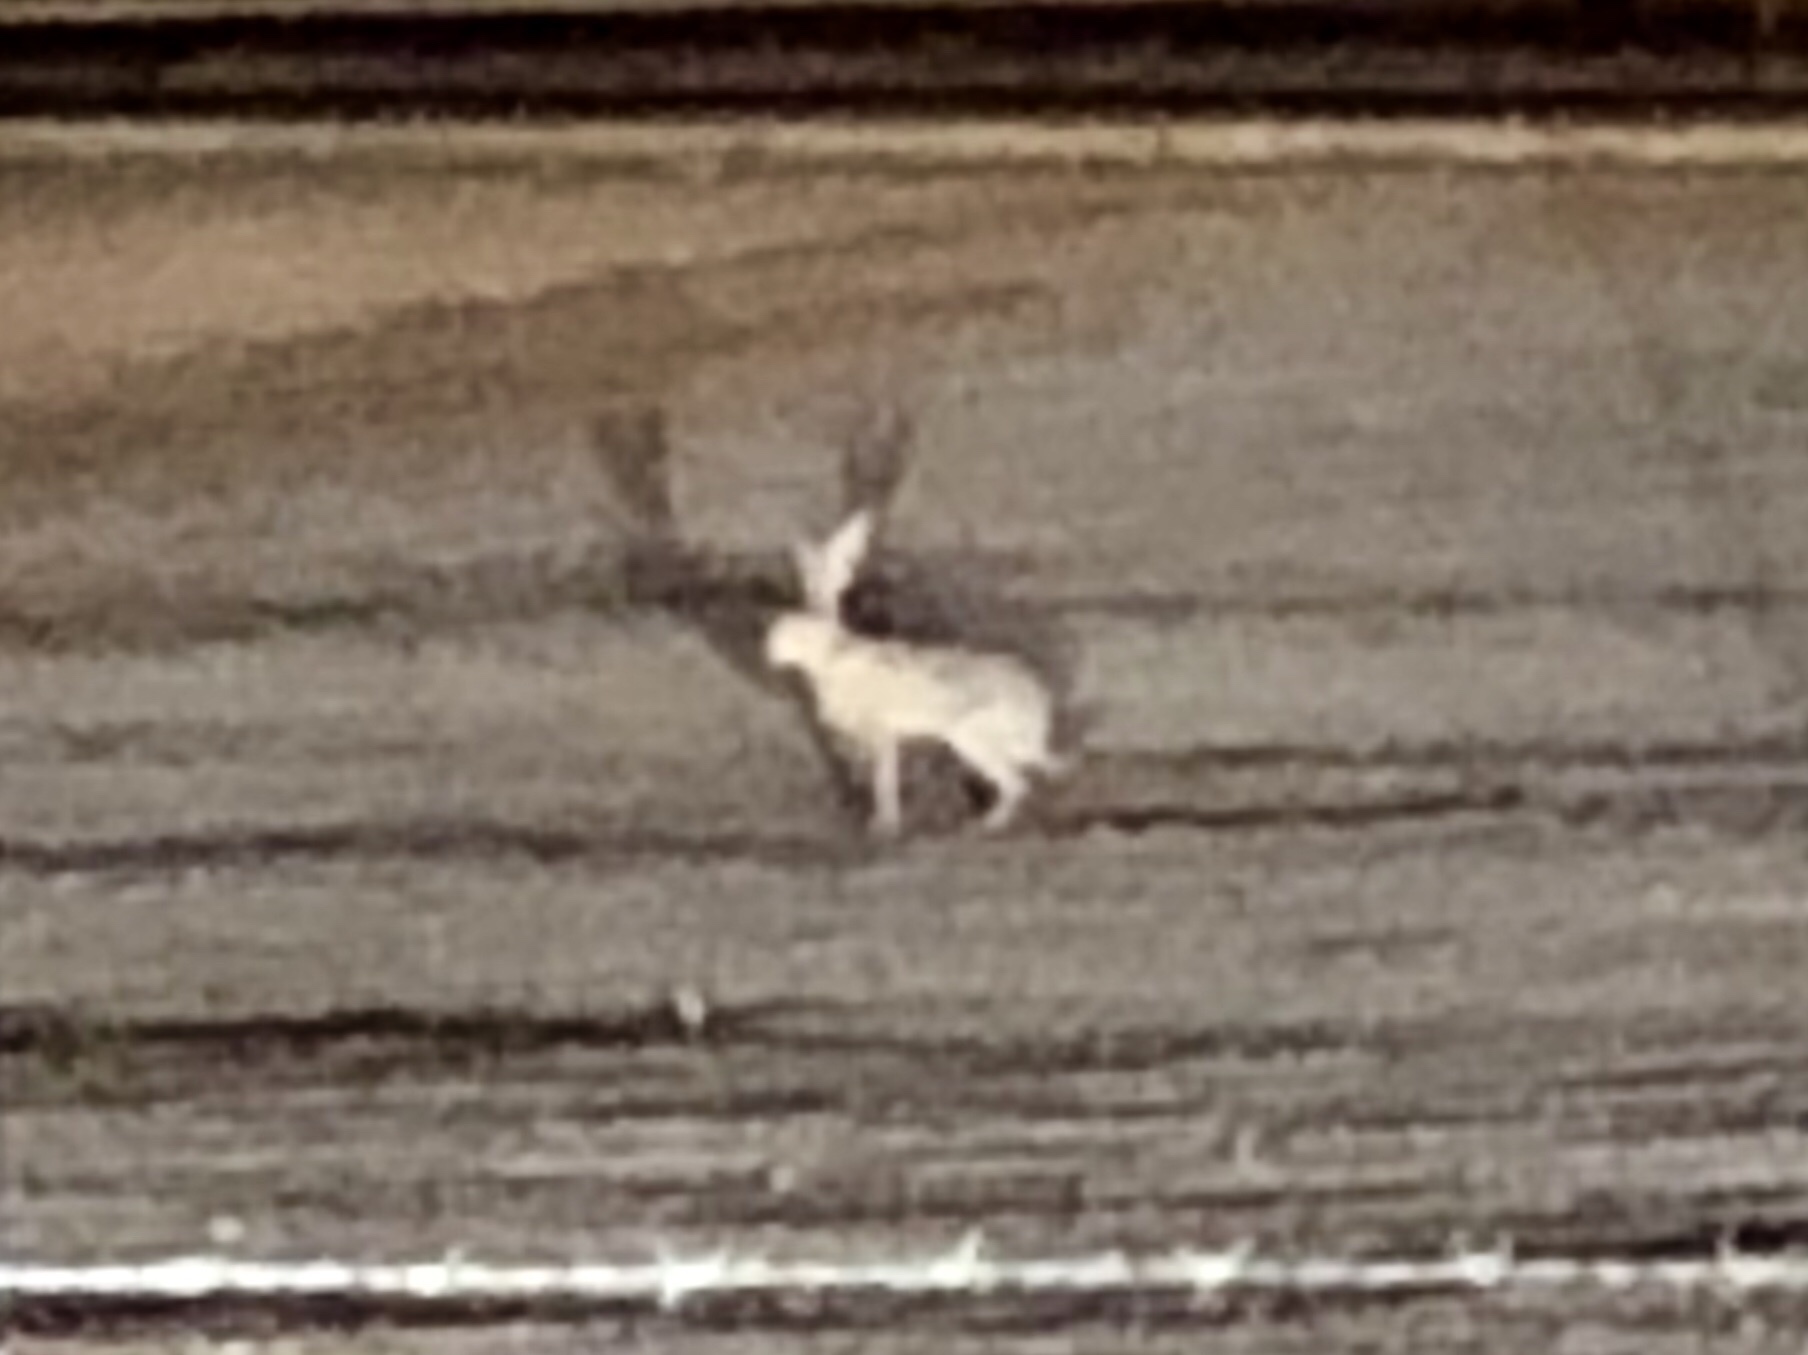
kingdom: Animalia
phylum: Chordata
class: Mammalia
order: Lagomorpha
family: Leporidae
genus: Lepus
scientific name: Lepus californicus
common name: Black-tailed jackrabbit
